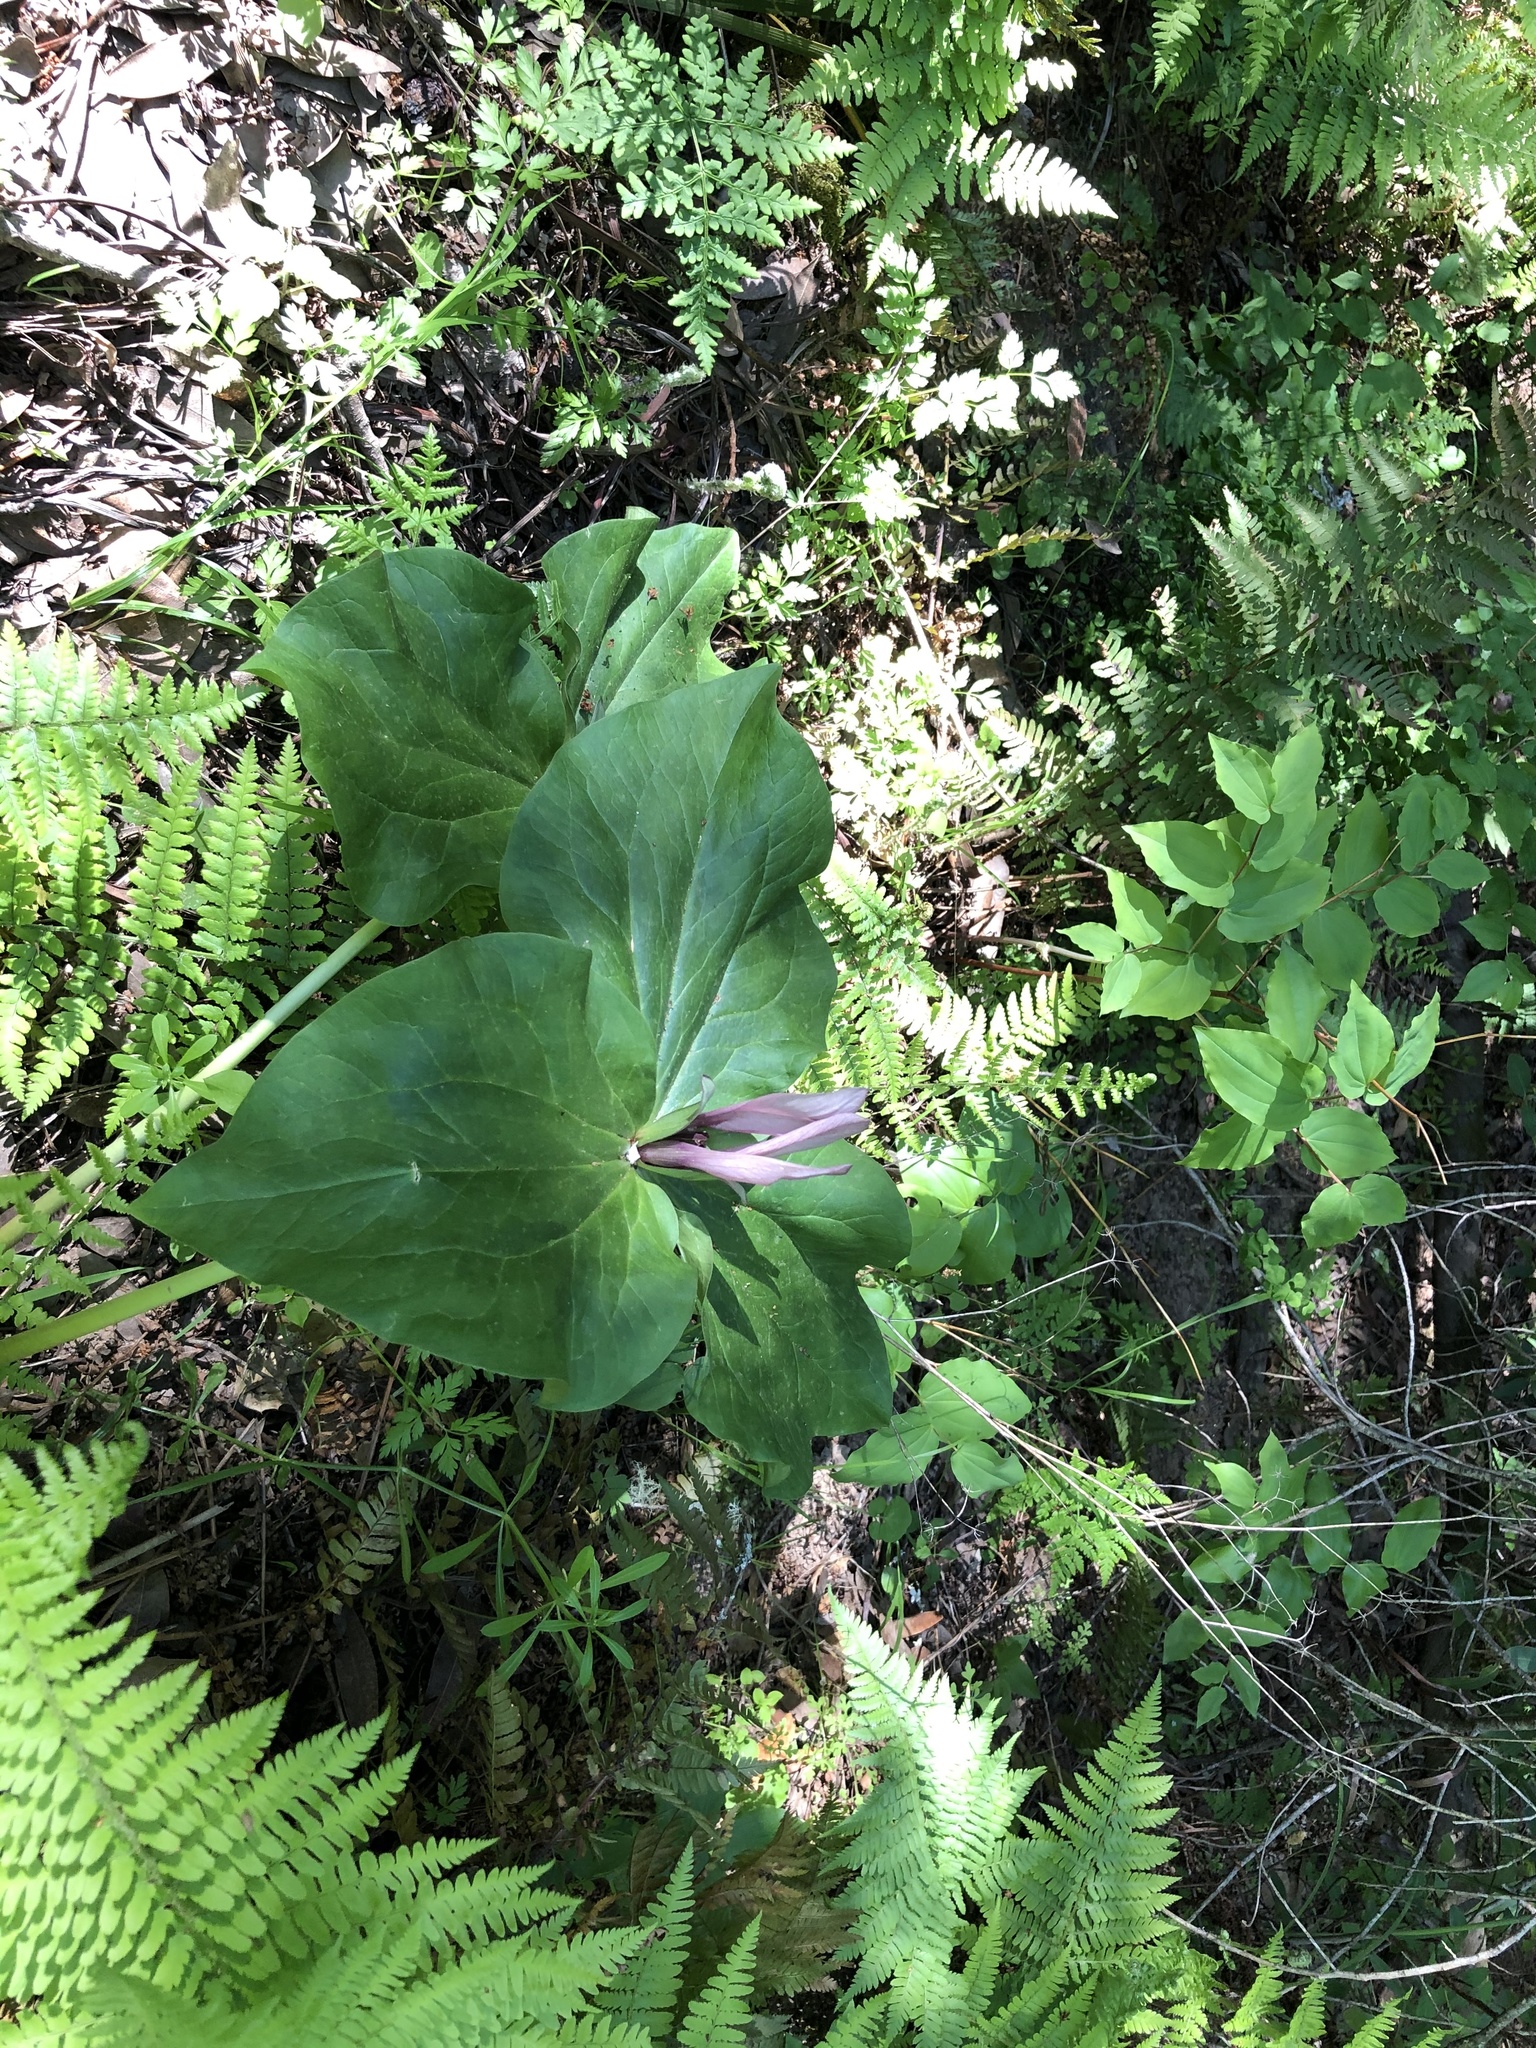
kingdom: Plantae
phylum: Tracheophyta
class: Liliopsida
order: Liliales
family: Melanthiaceae
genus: Trillium
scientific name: Trillium chloropetalum
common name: Giant trillium
